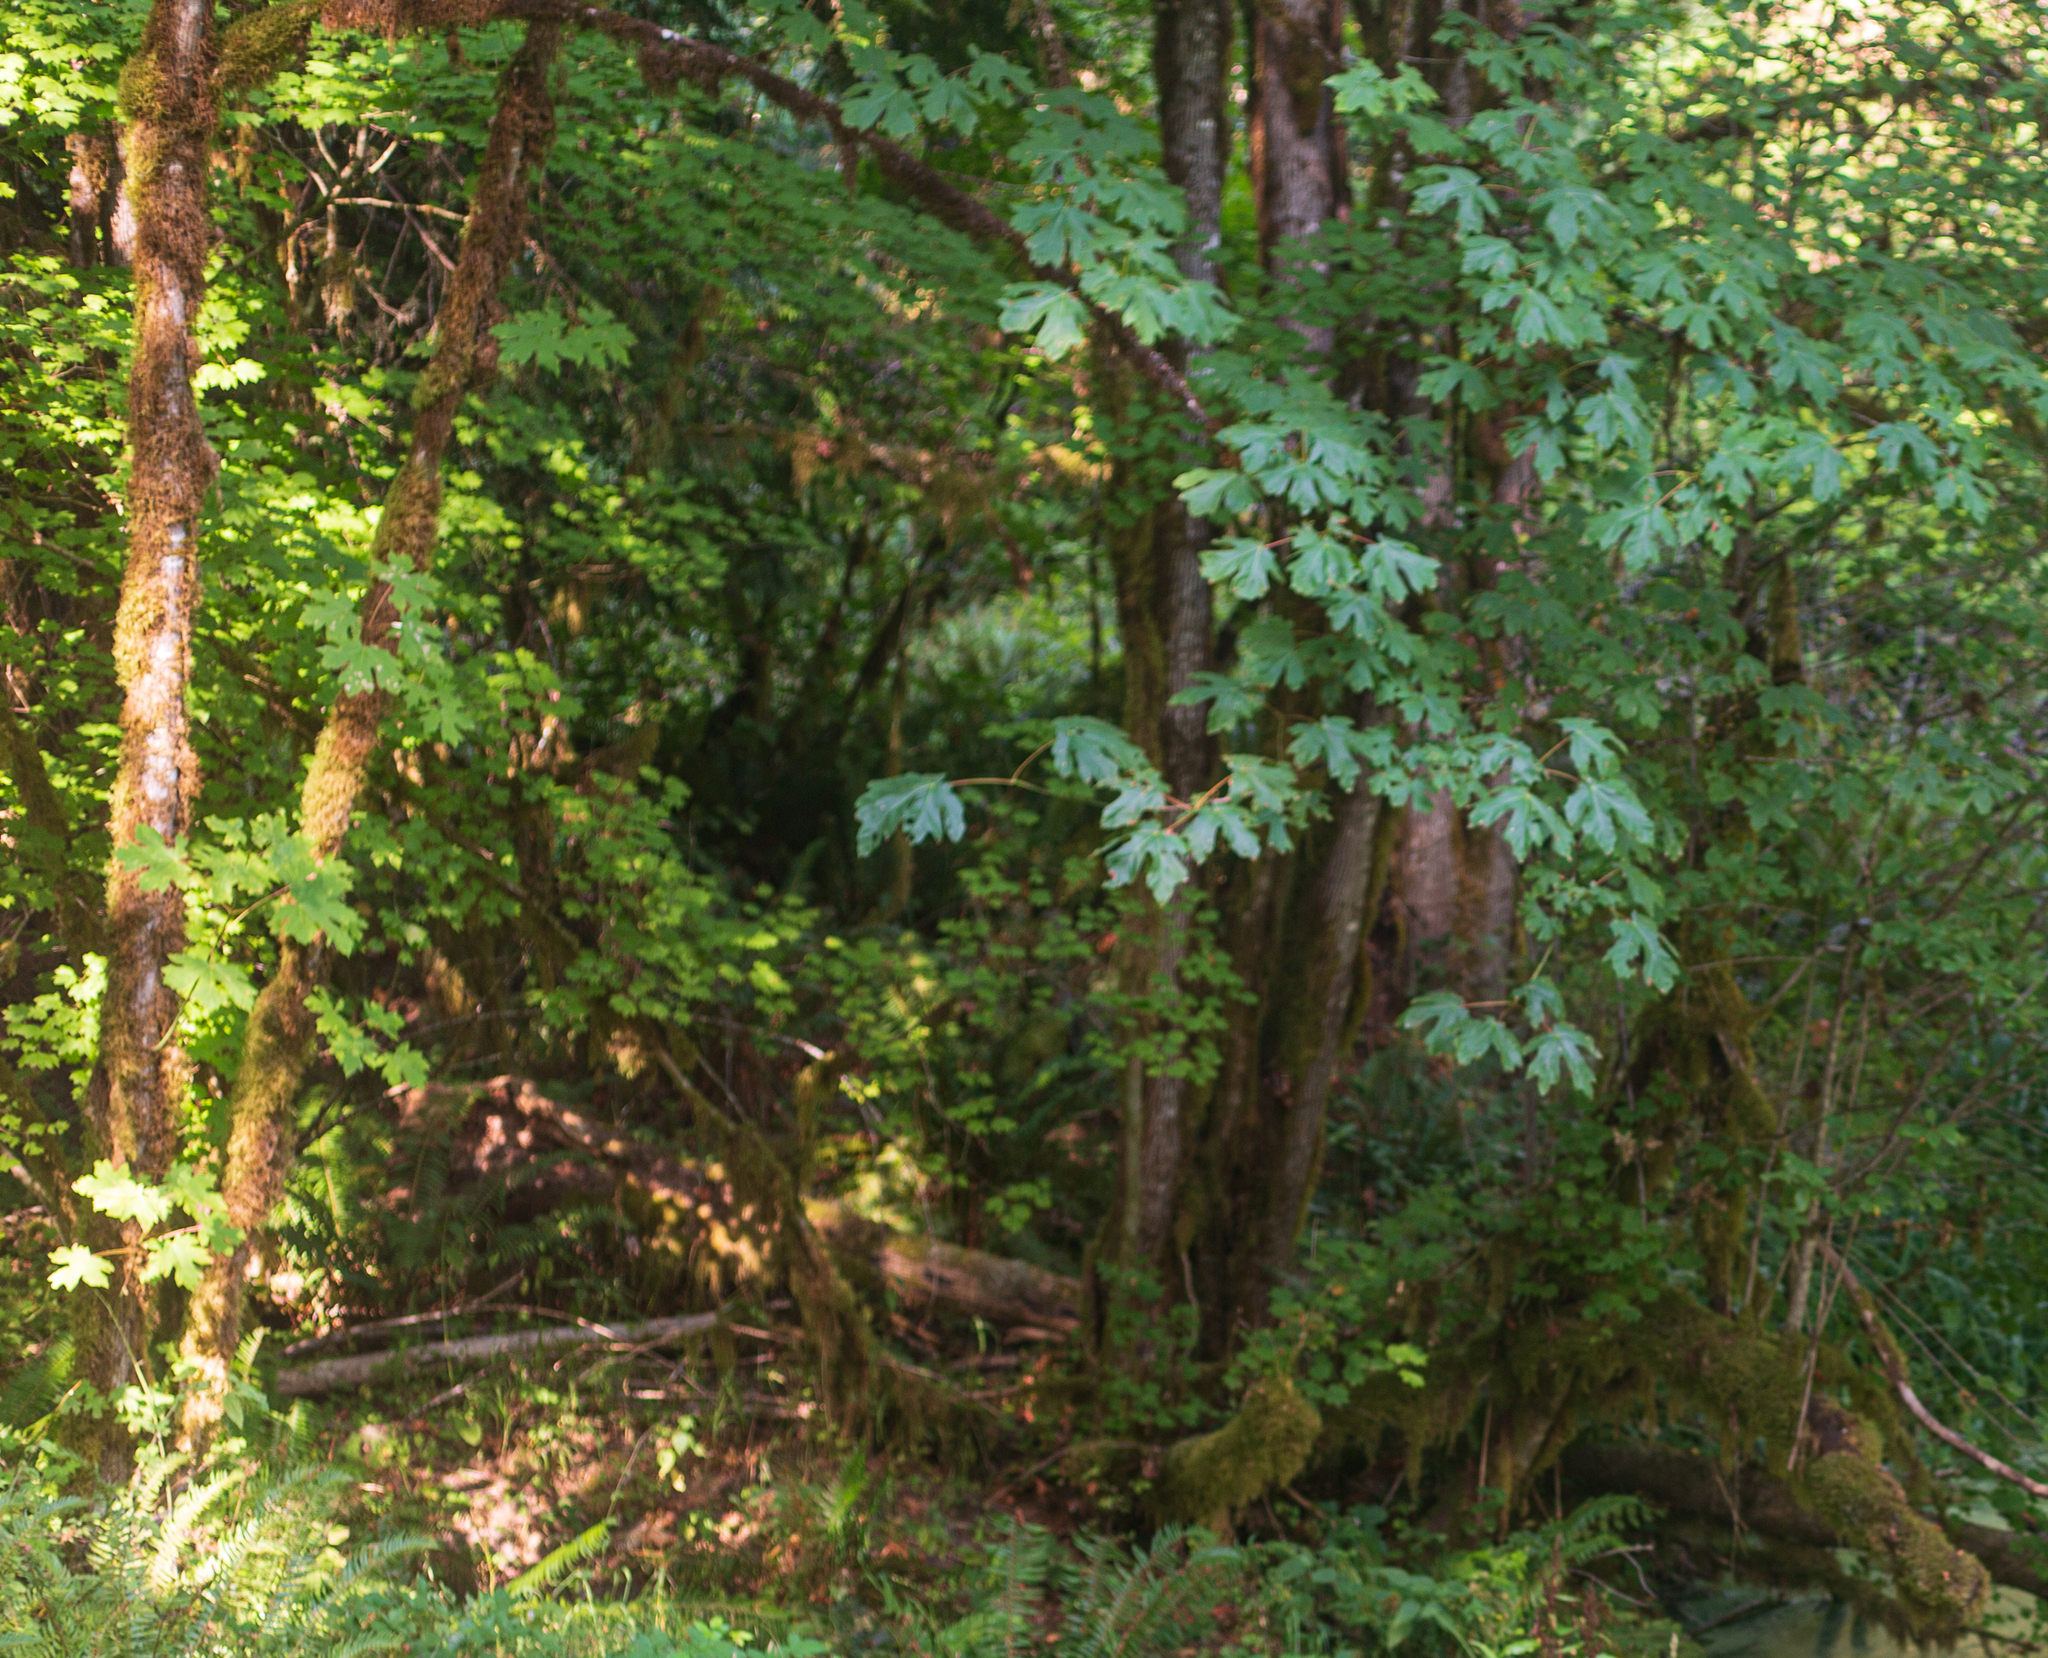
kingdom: Plantae
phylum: Tracheophyta
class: Magnoliopsida
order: Sapindales
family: Sapindaceae
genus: Acer
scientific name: Acer macrophyllum
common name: Oregon maple
